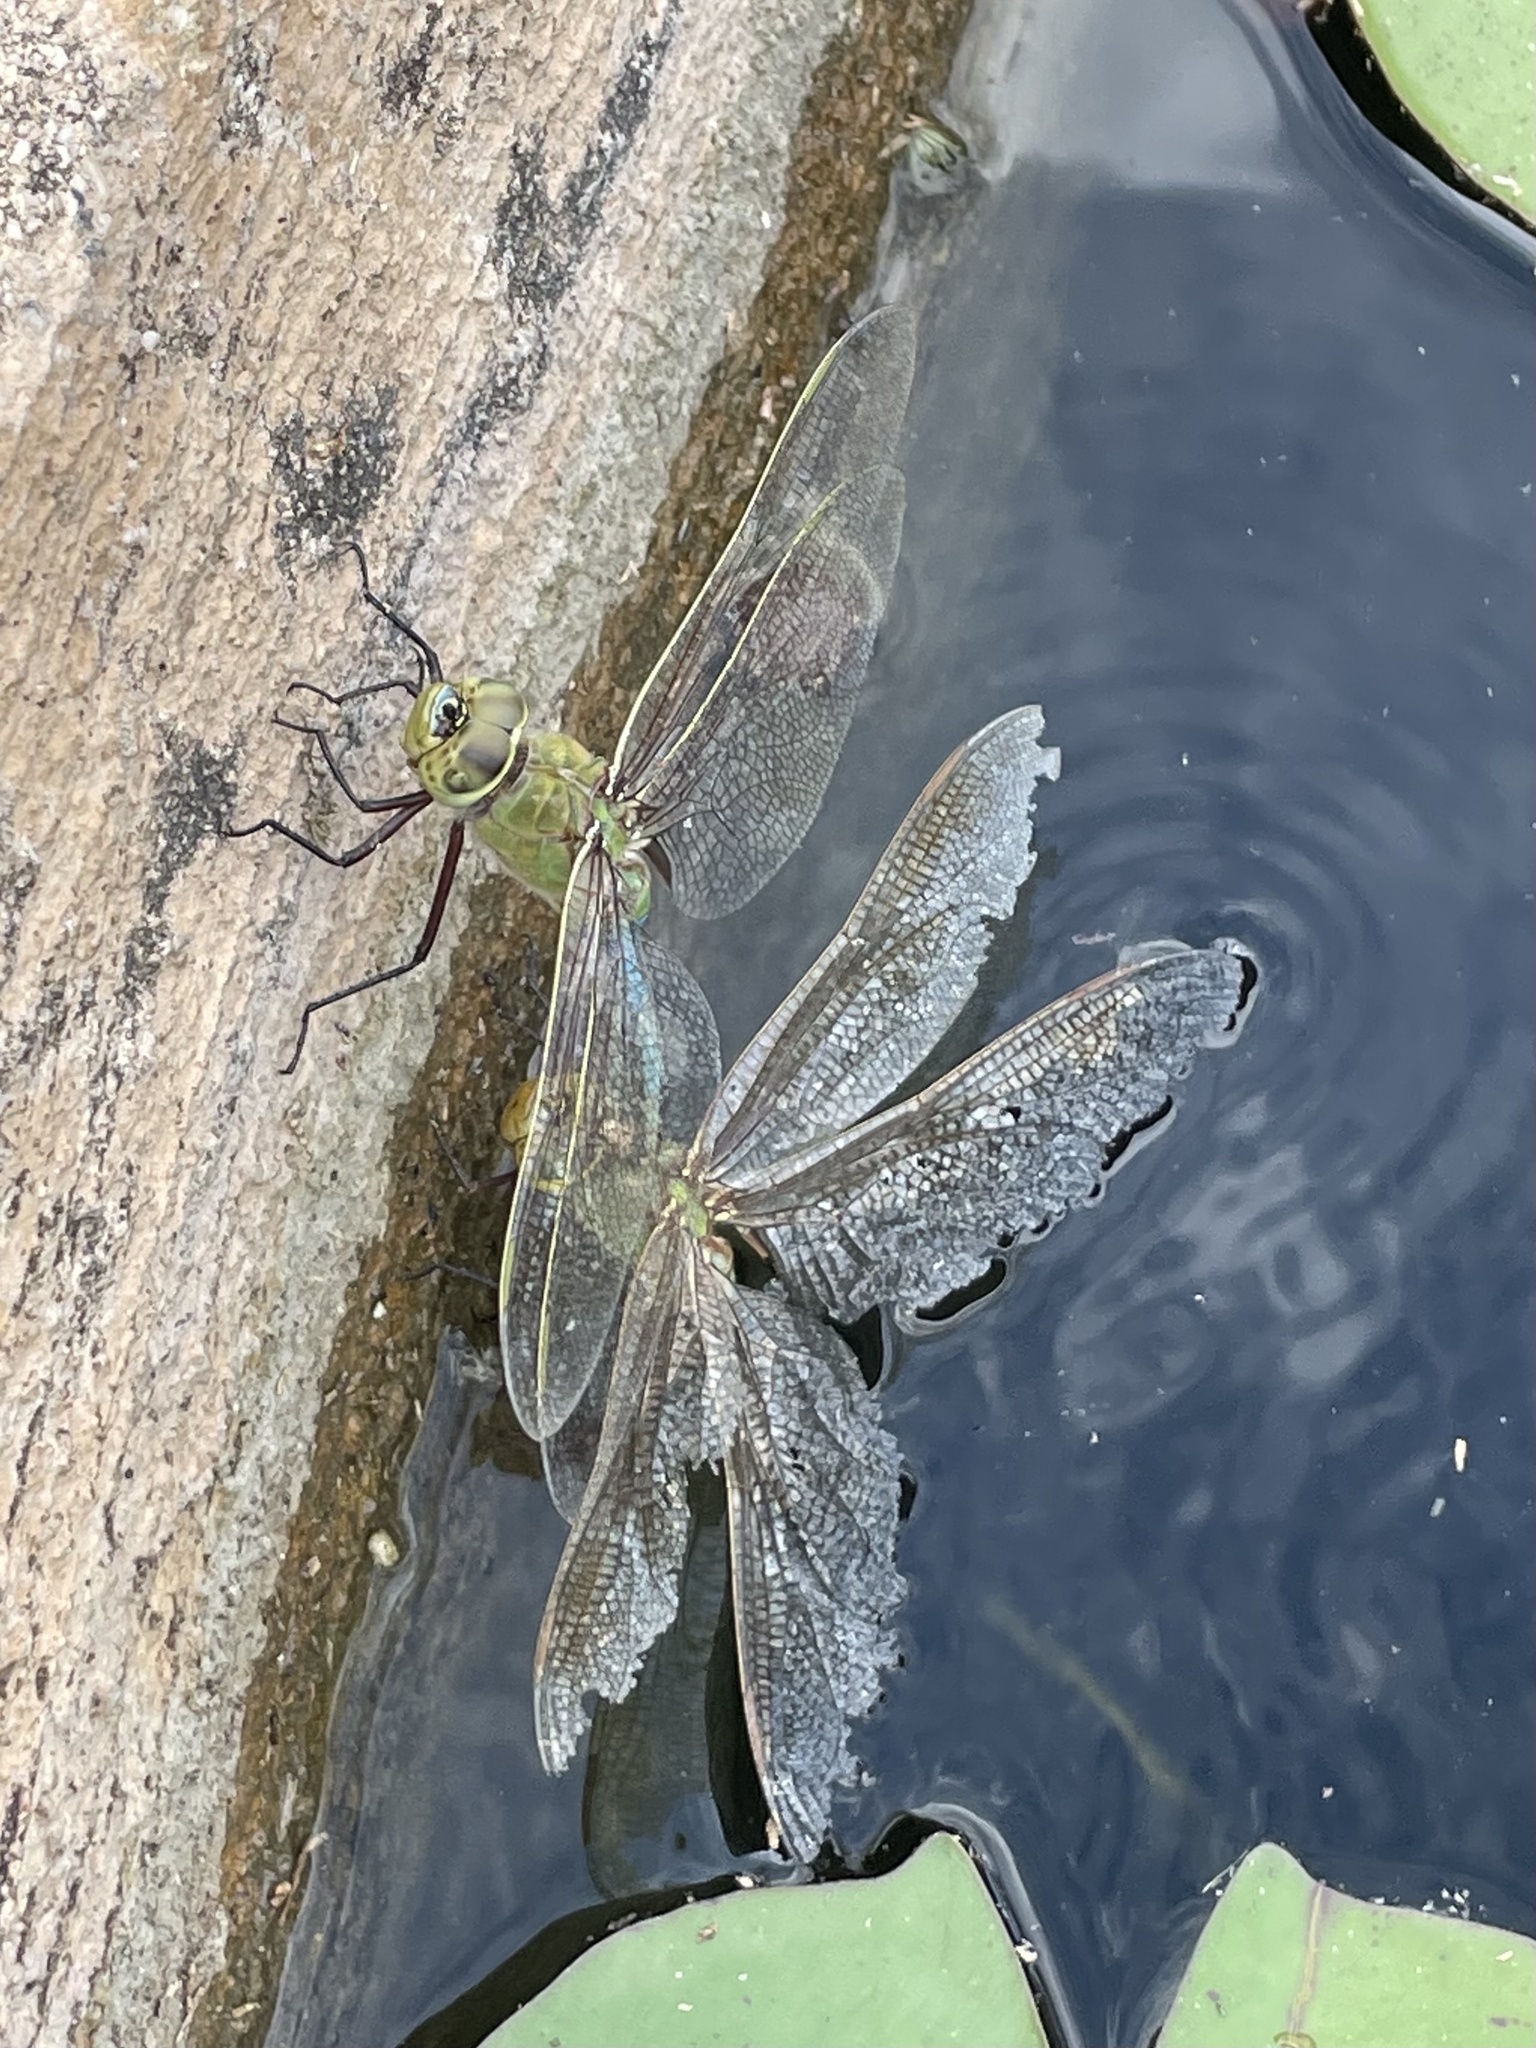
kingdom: Animalia
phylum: Arthropoda
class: Insecta
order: Odonata
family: Aeshnidae
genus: Anax
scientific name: Anax junius
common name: Common green darner
